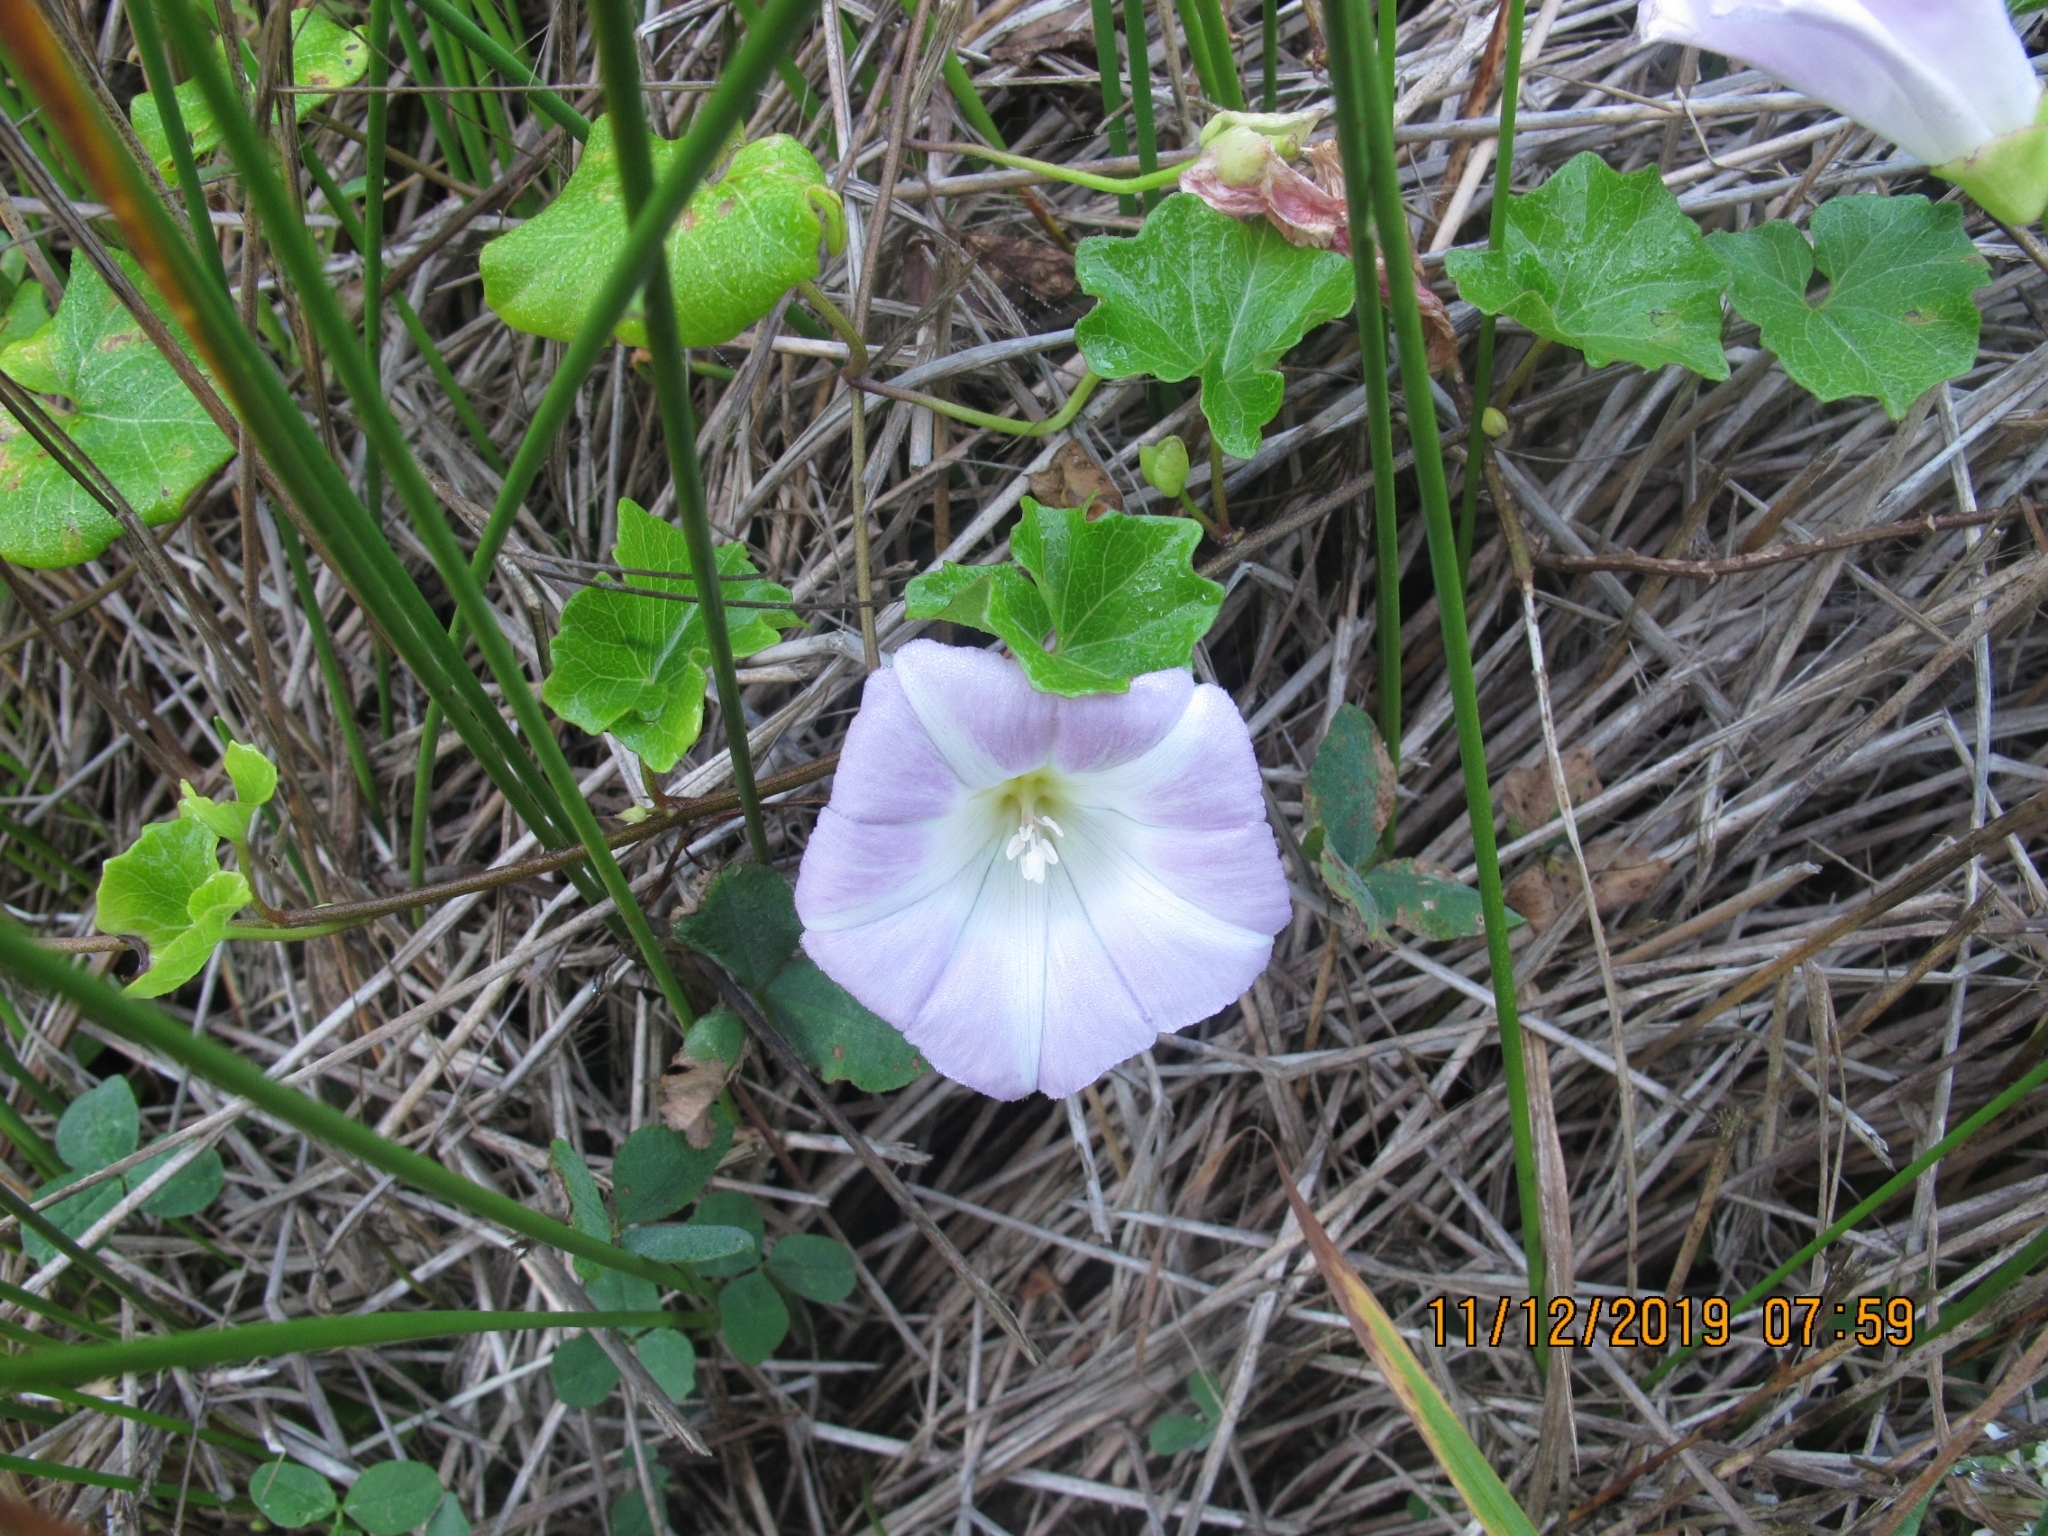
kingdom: Plantae
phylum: Tracheophyta
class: Magnoliopsida
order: Solanales
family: Convolvulaceae
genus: Calystegia
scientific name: Calystegia soldanella
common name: Sea bindweed
